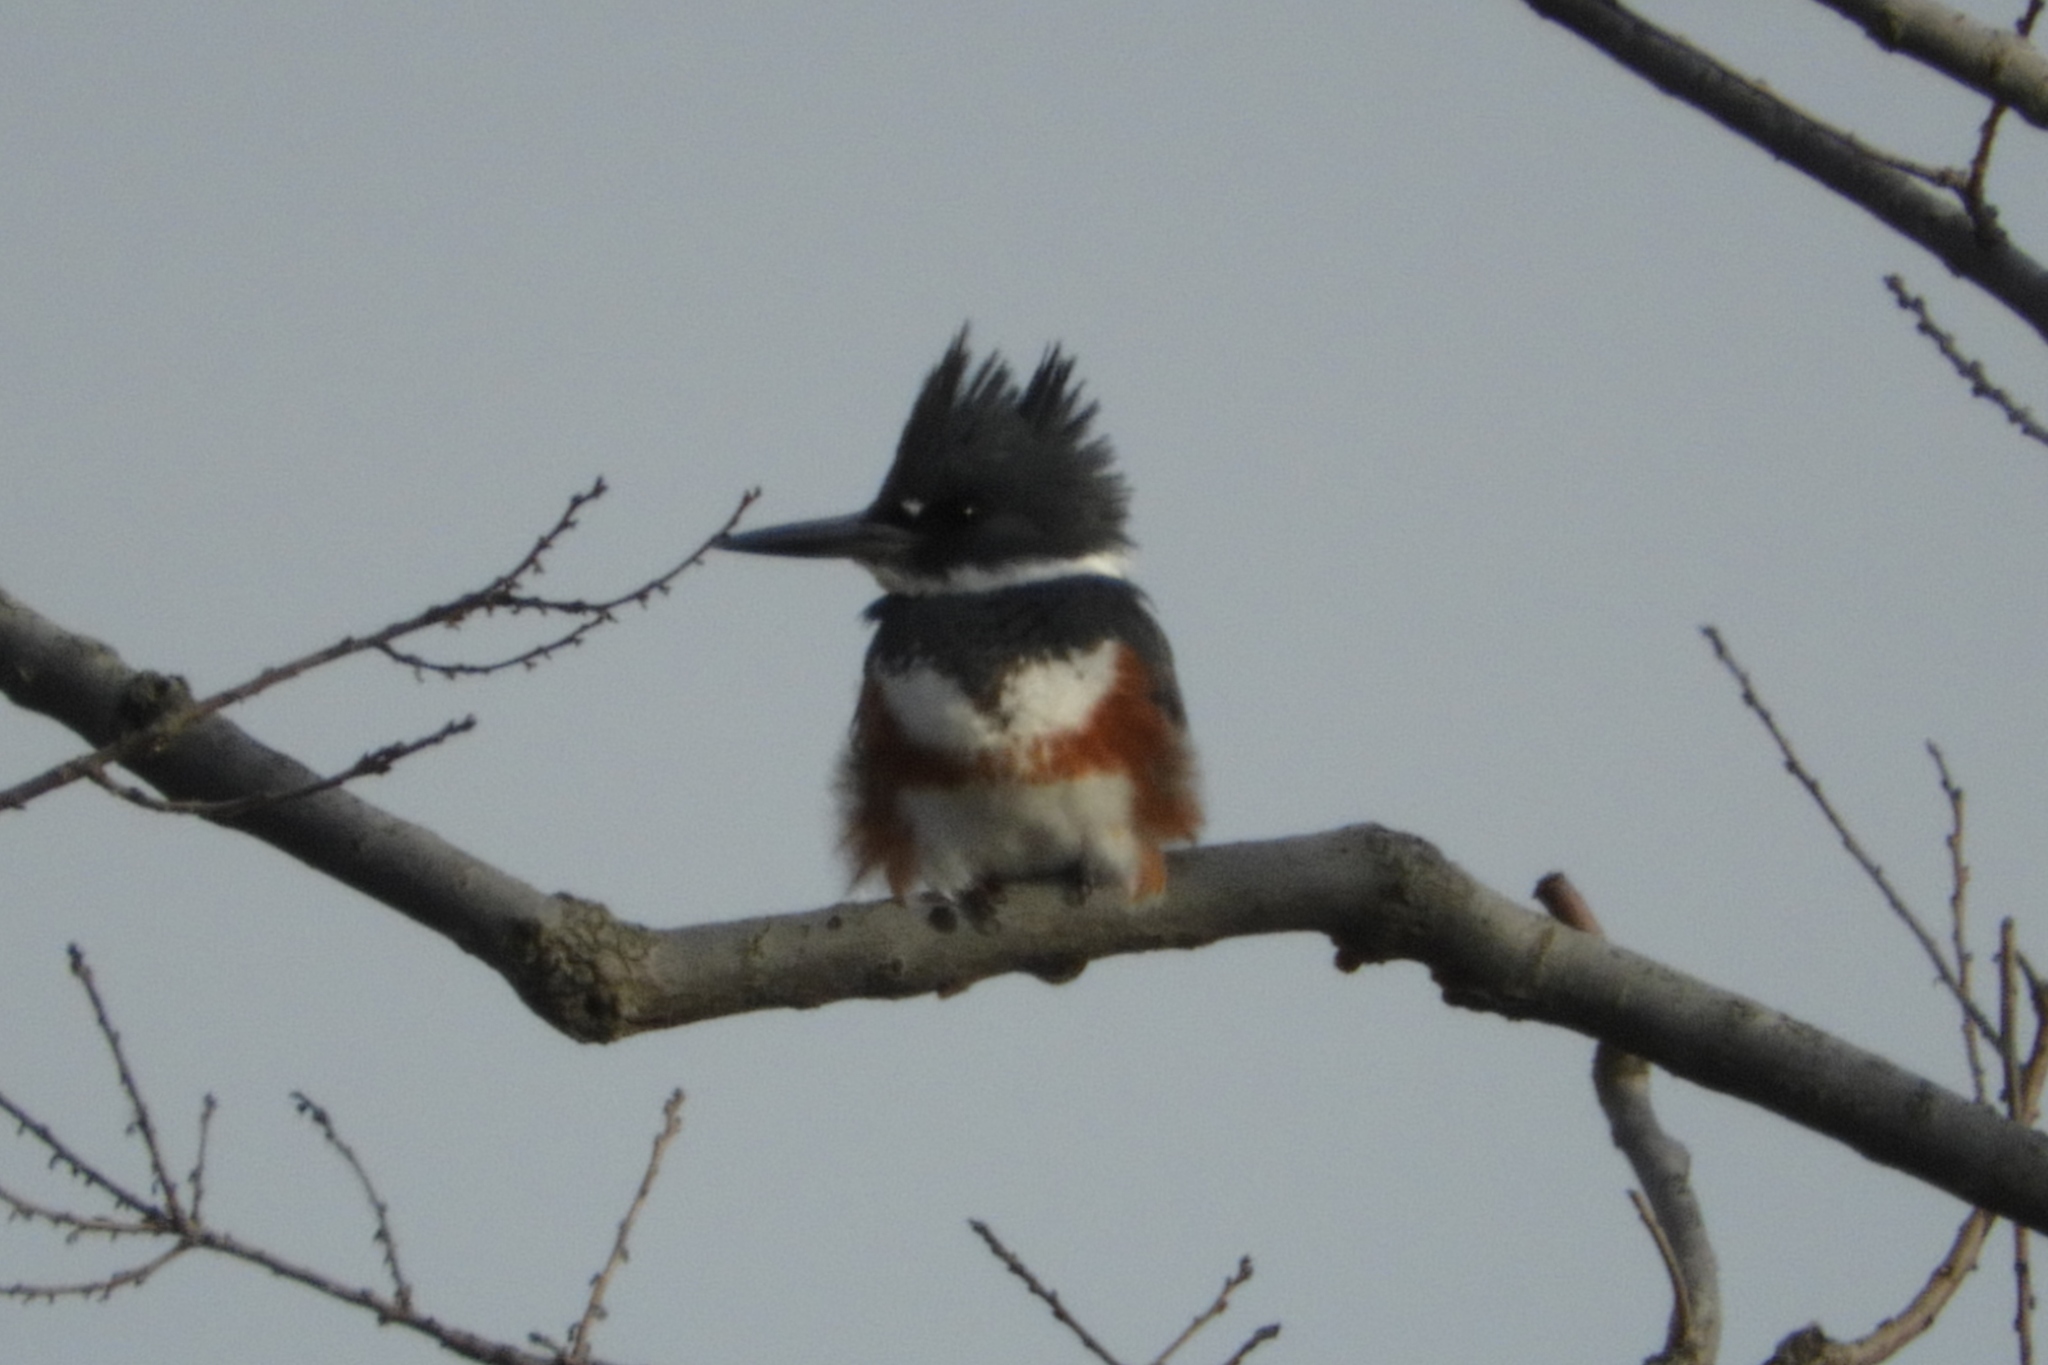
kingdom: Animalia
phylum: Chordata
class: Aves
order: Coraciiformes
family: Alcedinidae
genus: Megaceryle
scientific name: Megaceryle alcyon
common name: Belted kingfisher
